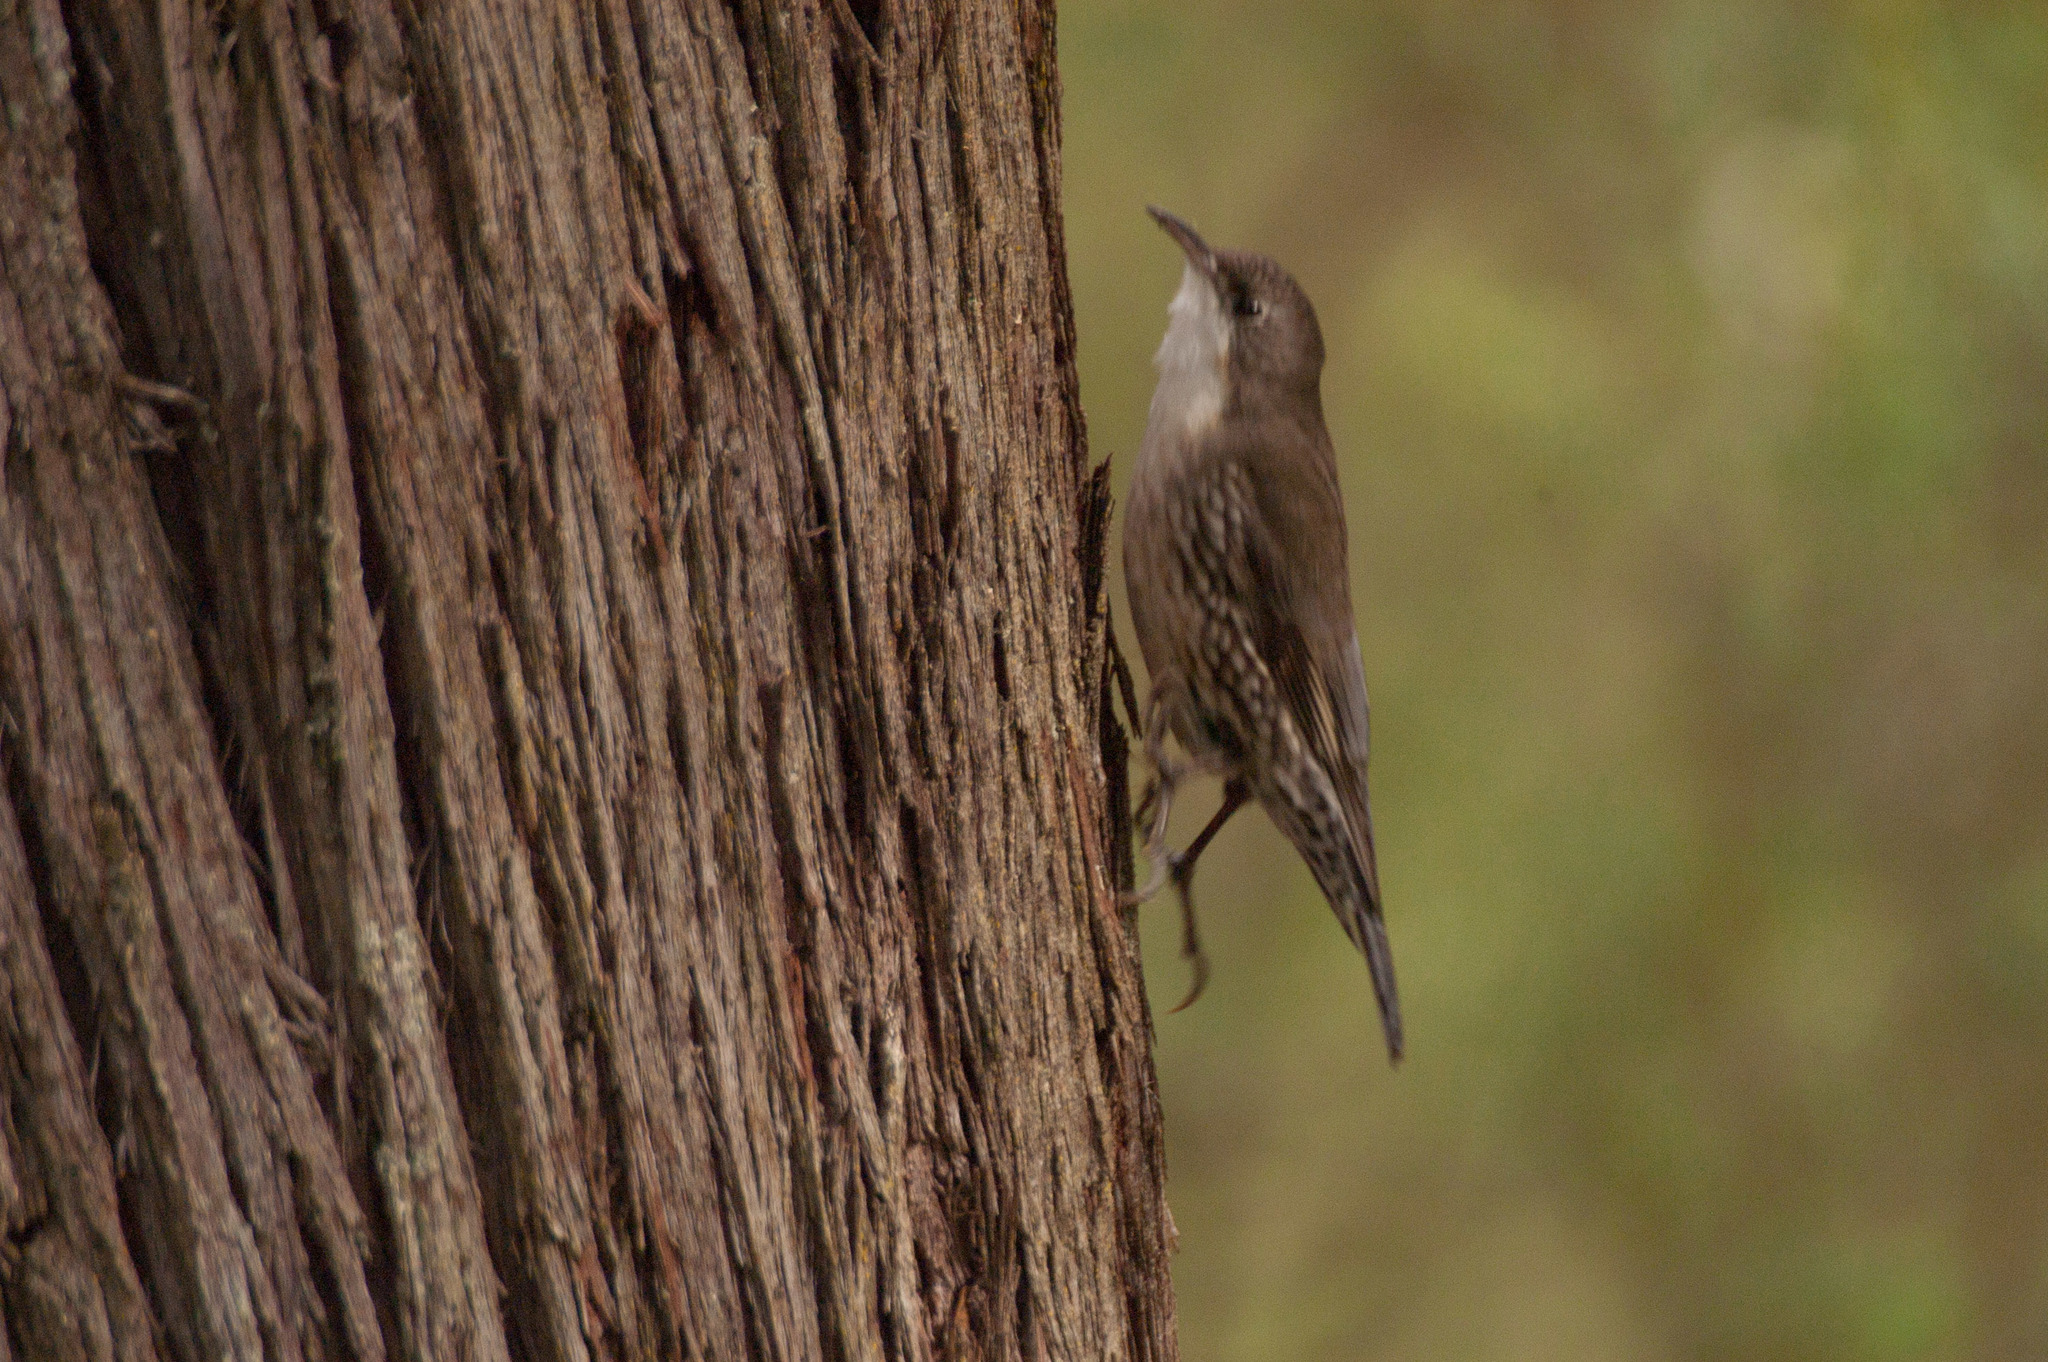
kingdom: Animalia
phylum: Chordata
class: Aves
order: Passeriformes
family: Climacteridae
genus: Cormobates
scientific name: Cormobates leucophaea
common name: White-throated treecreeper
